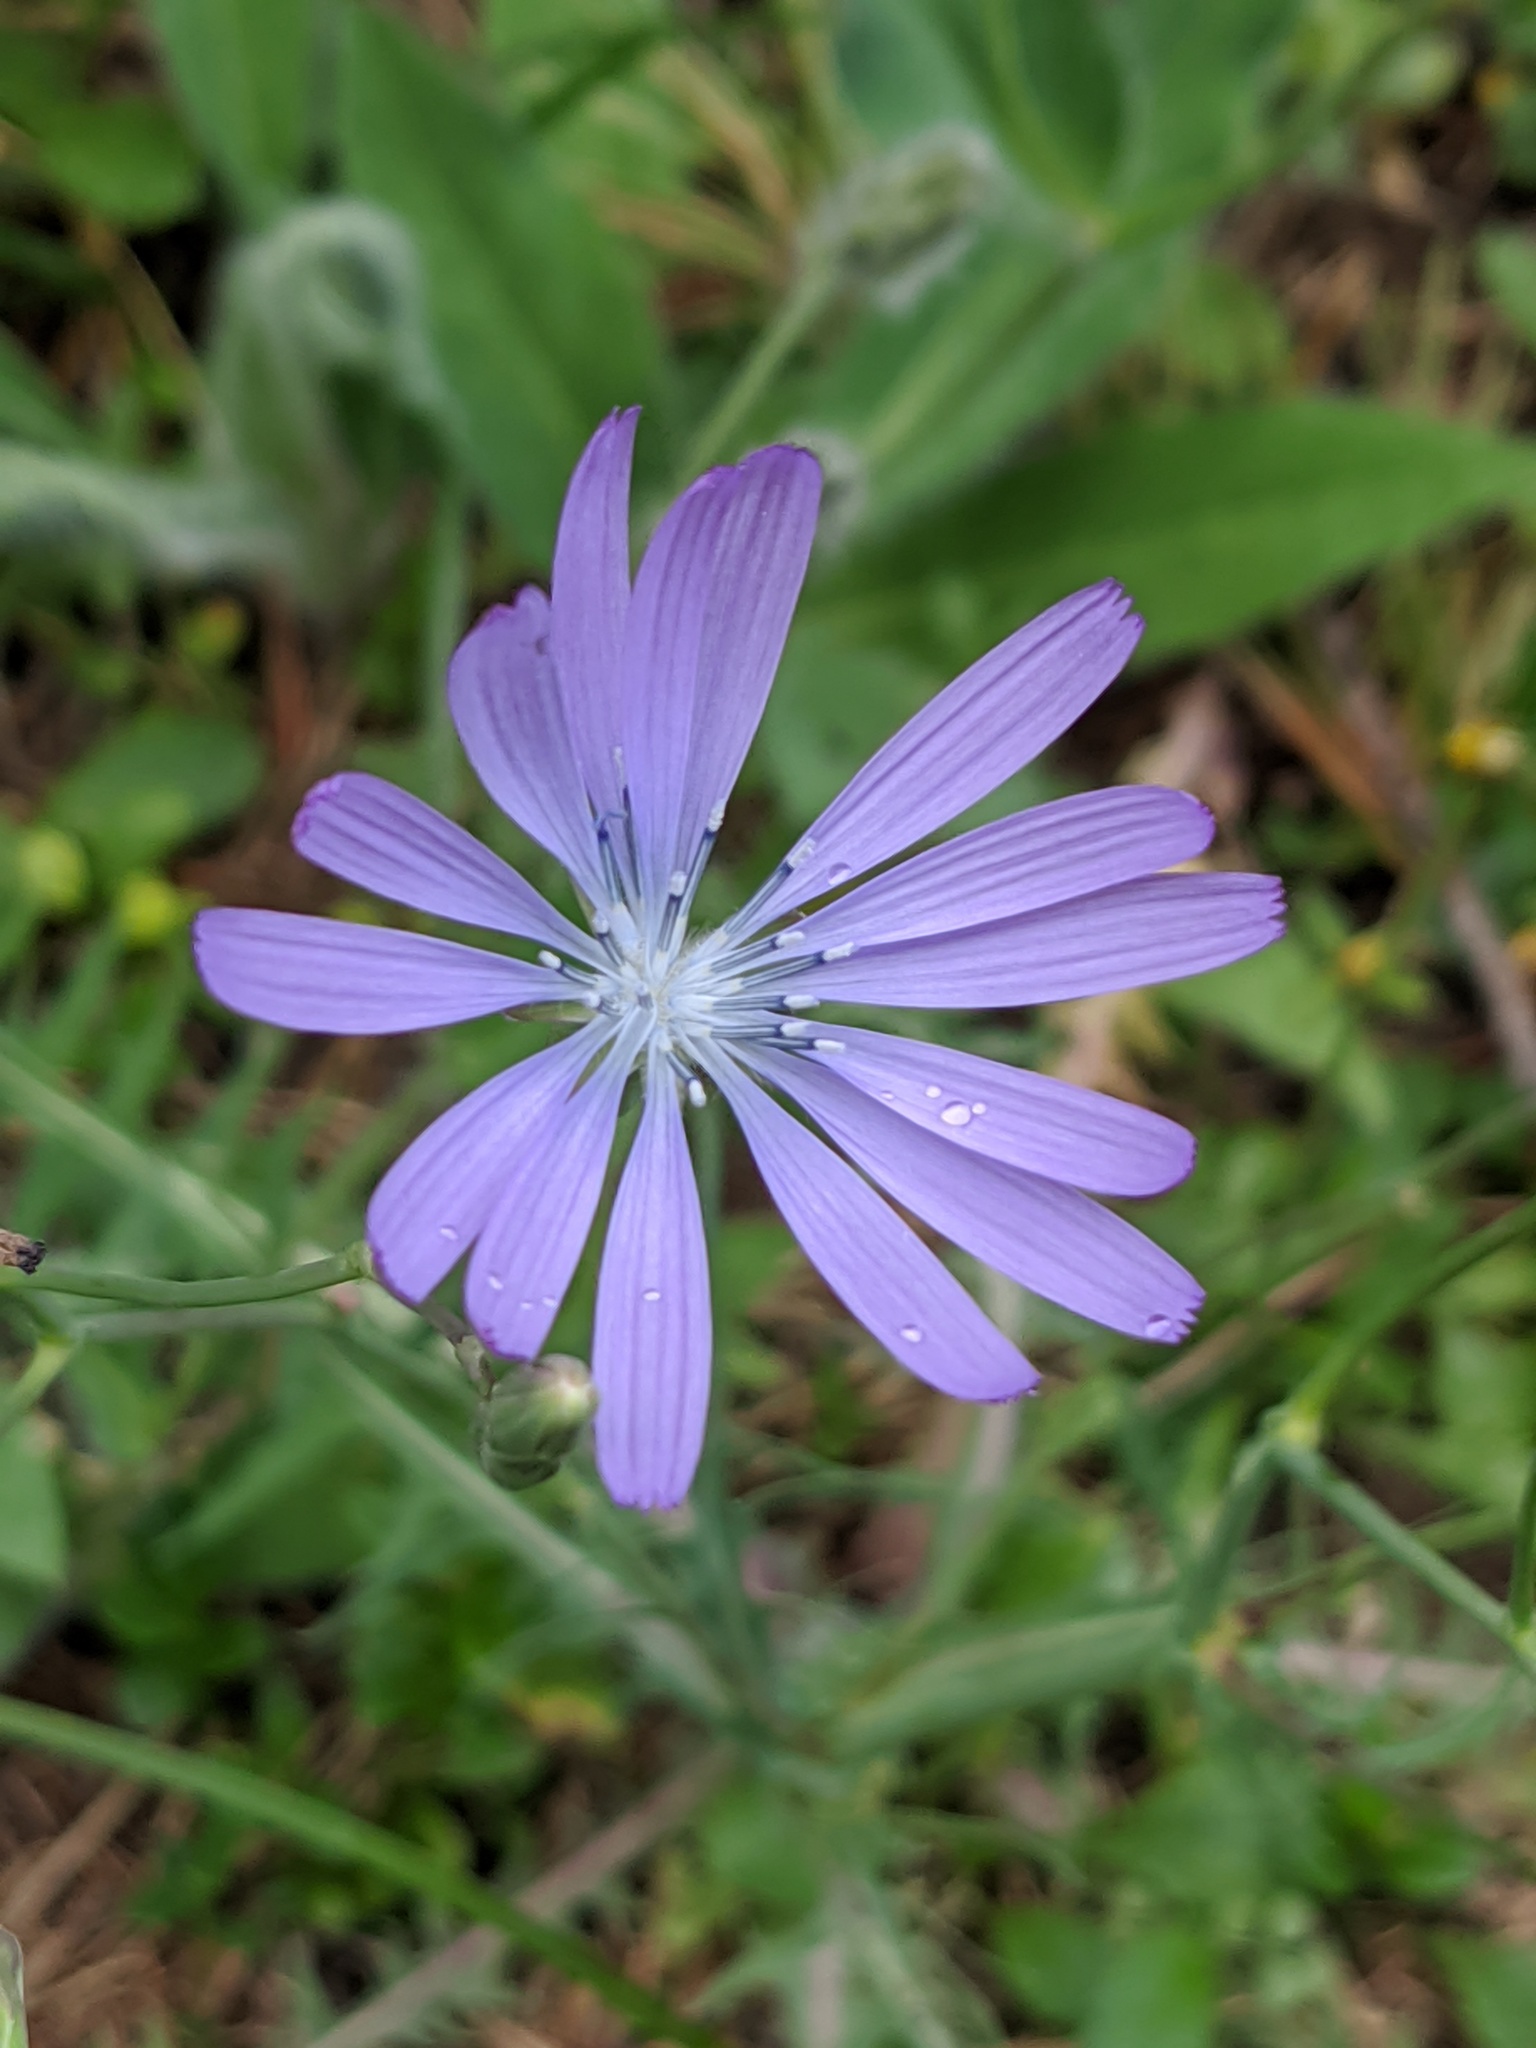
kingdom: Plantae
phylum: Tracheophyta
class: Magnoliopsida
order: Asterales
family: Asteraceae
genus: Lactuca
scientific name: Lactuca perennis
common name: Mountain lettuce
